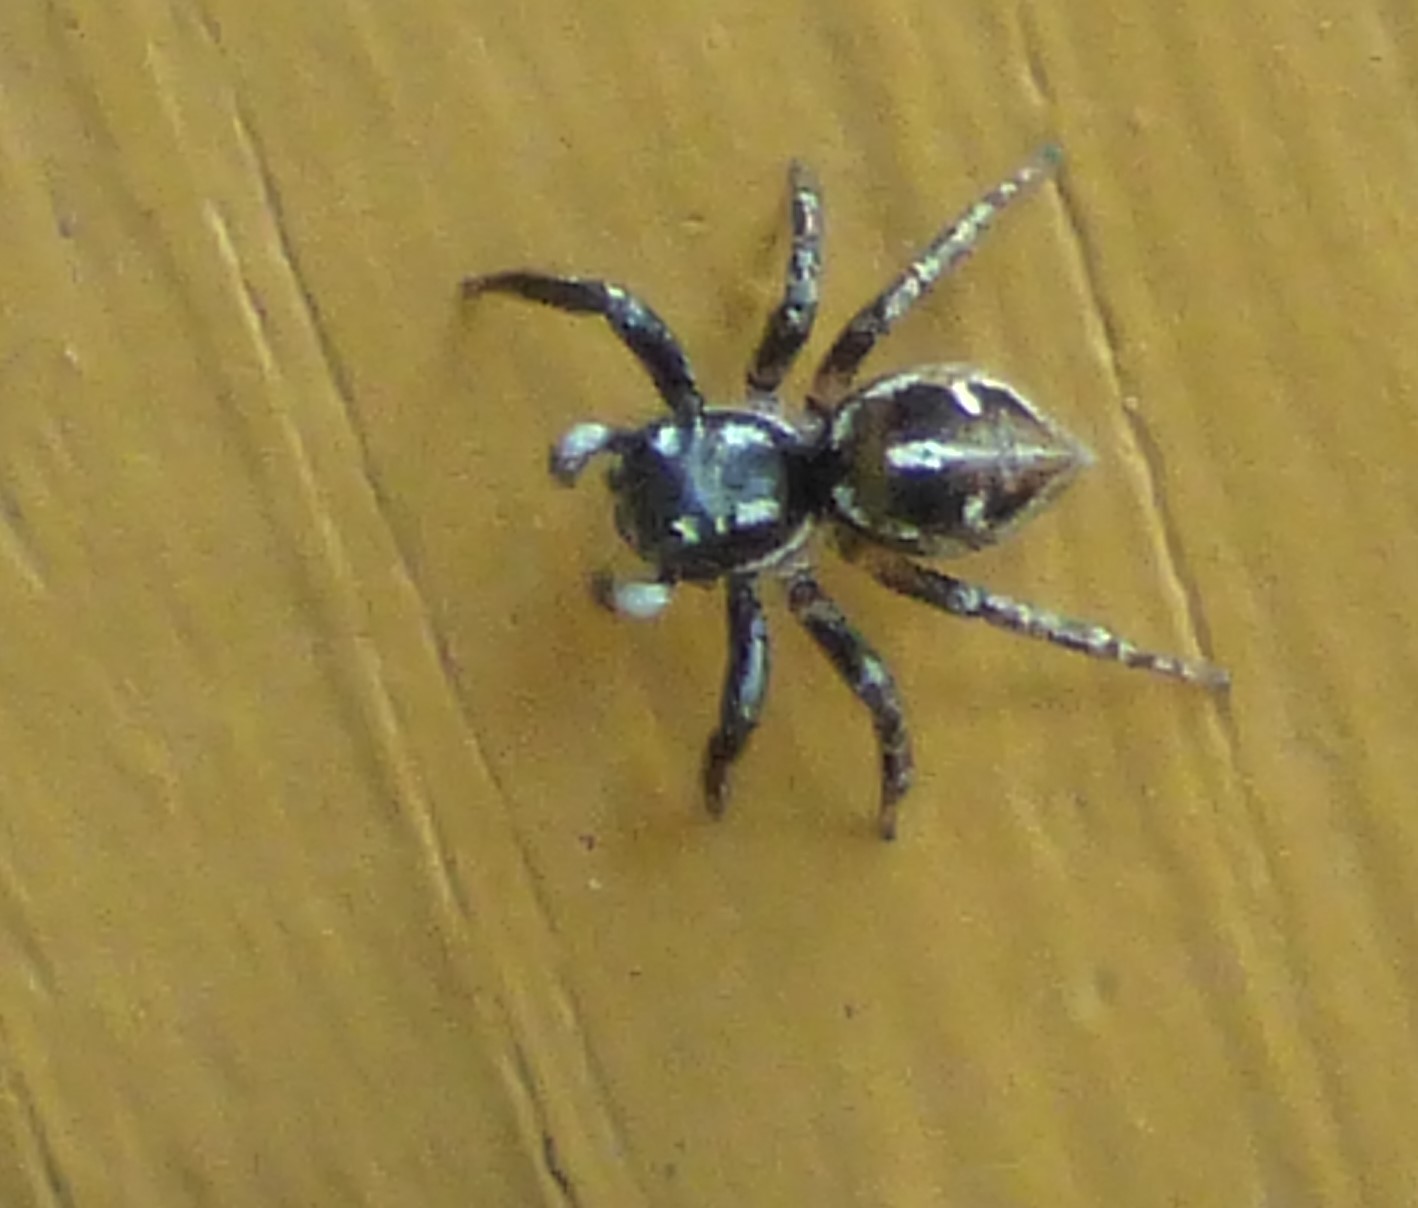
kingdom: Animalia
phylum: Arthropoda
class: Arachnida
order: Araneae
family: Salticidae
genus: Anasaitis
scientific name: Anasaitis canosa
